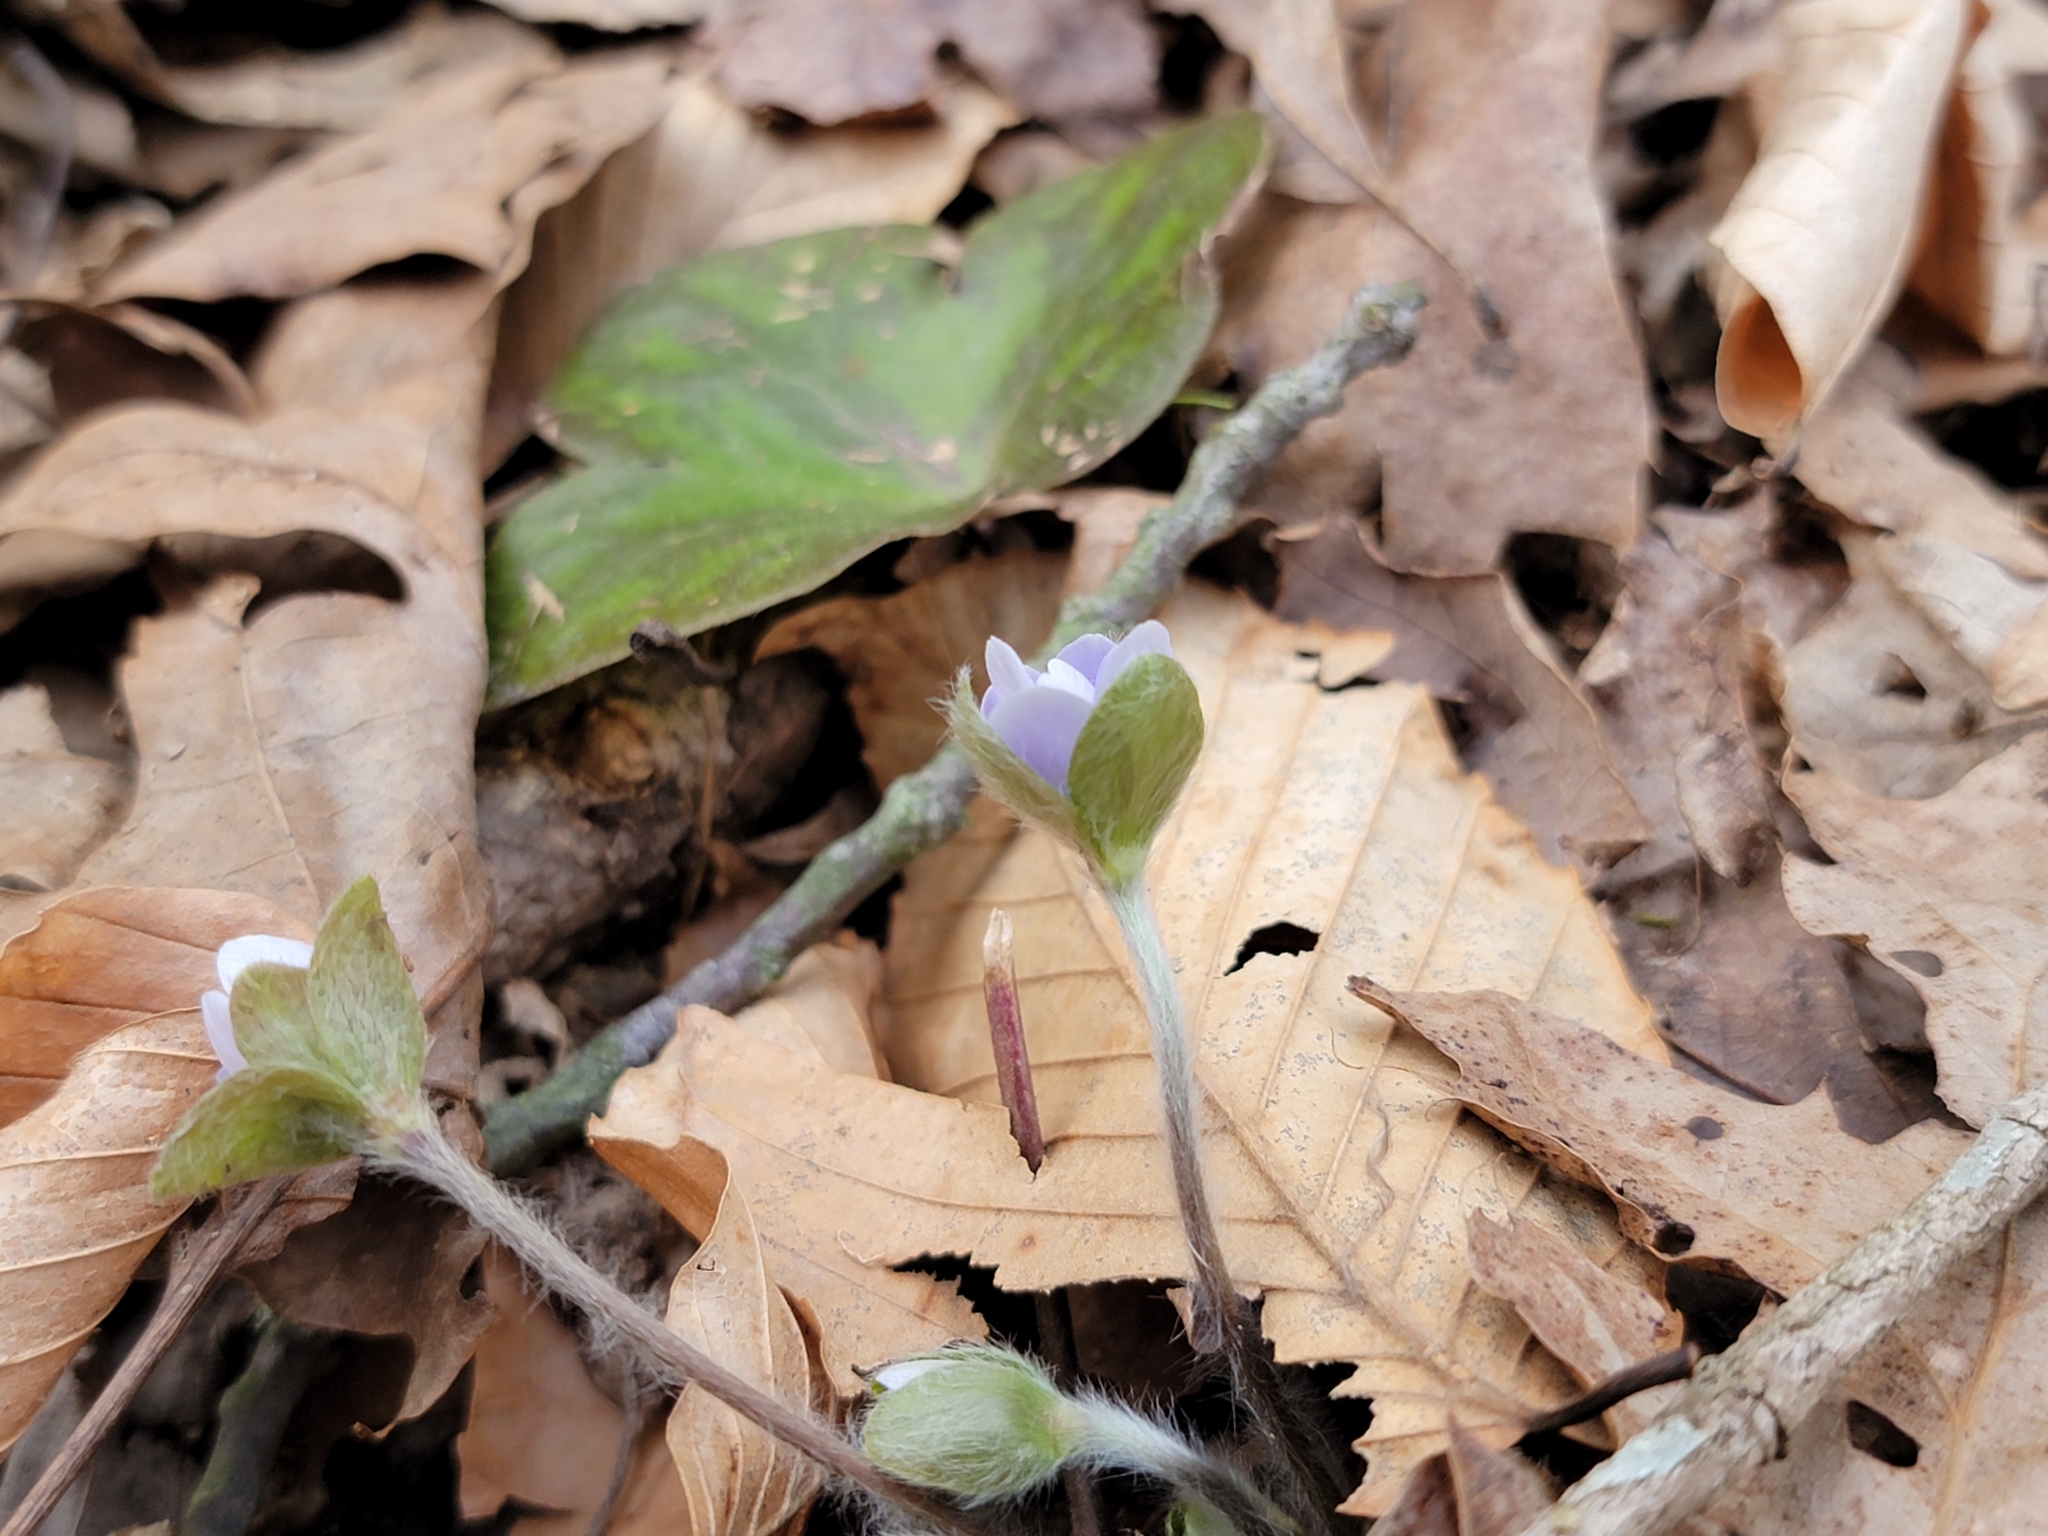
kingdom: Plantae
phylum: Tracheophyta
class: Magnoliopsida
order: Ranunculales
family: Ranunculaceae
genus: Hepatica
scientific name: Hepatica americana
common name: American hepatica
